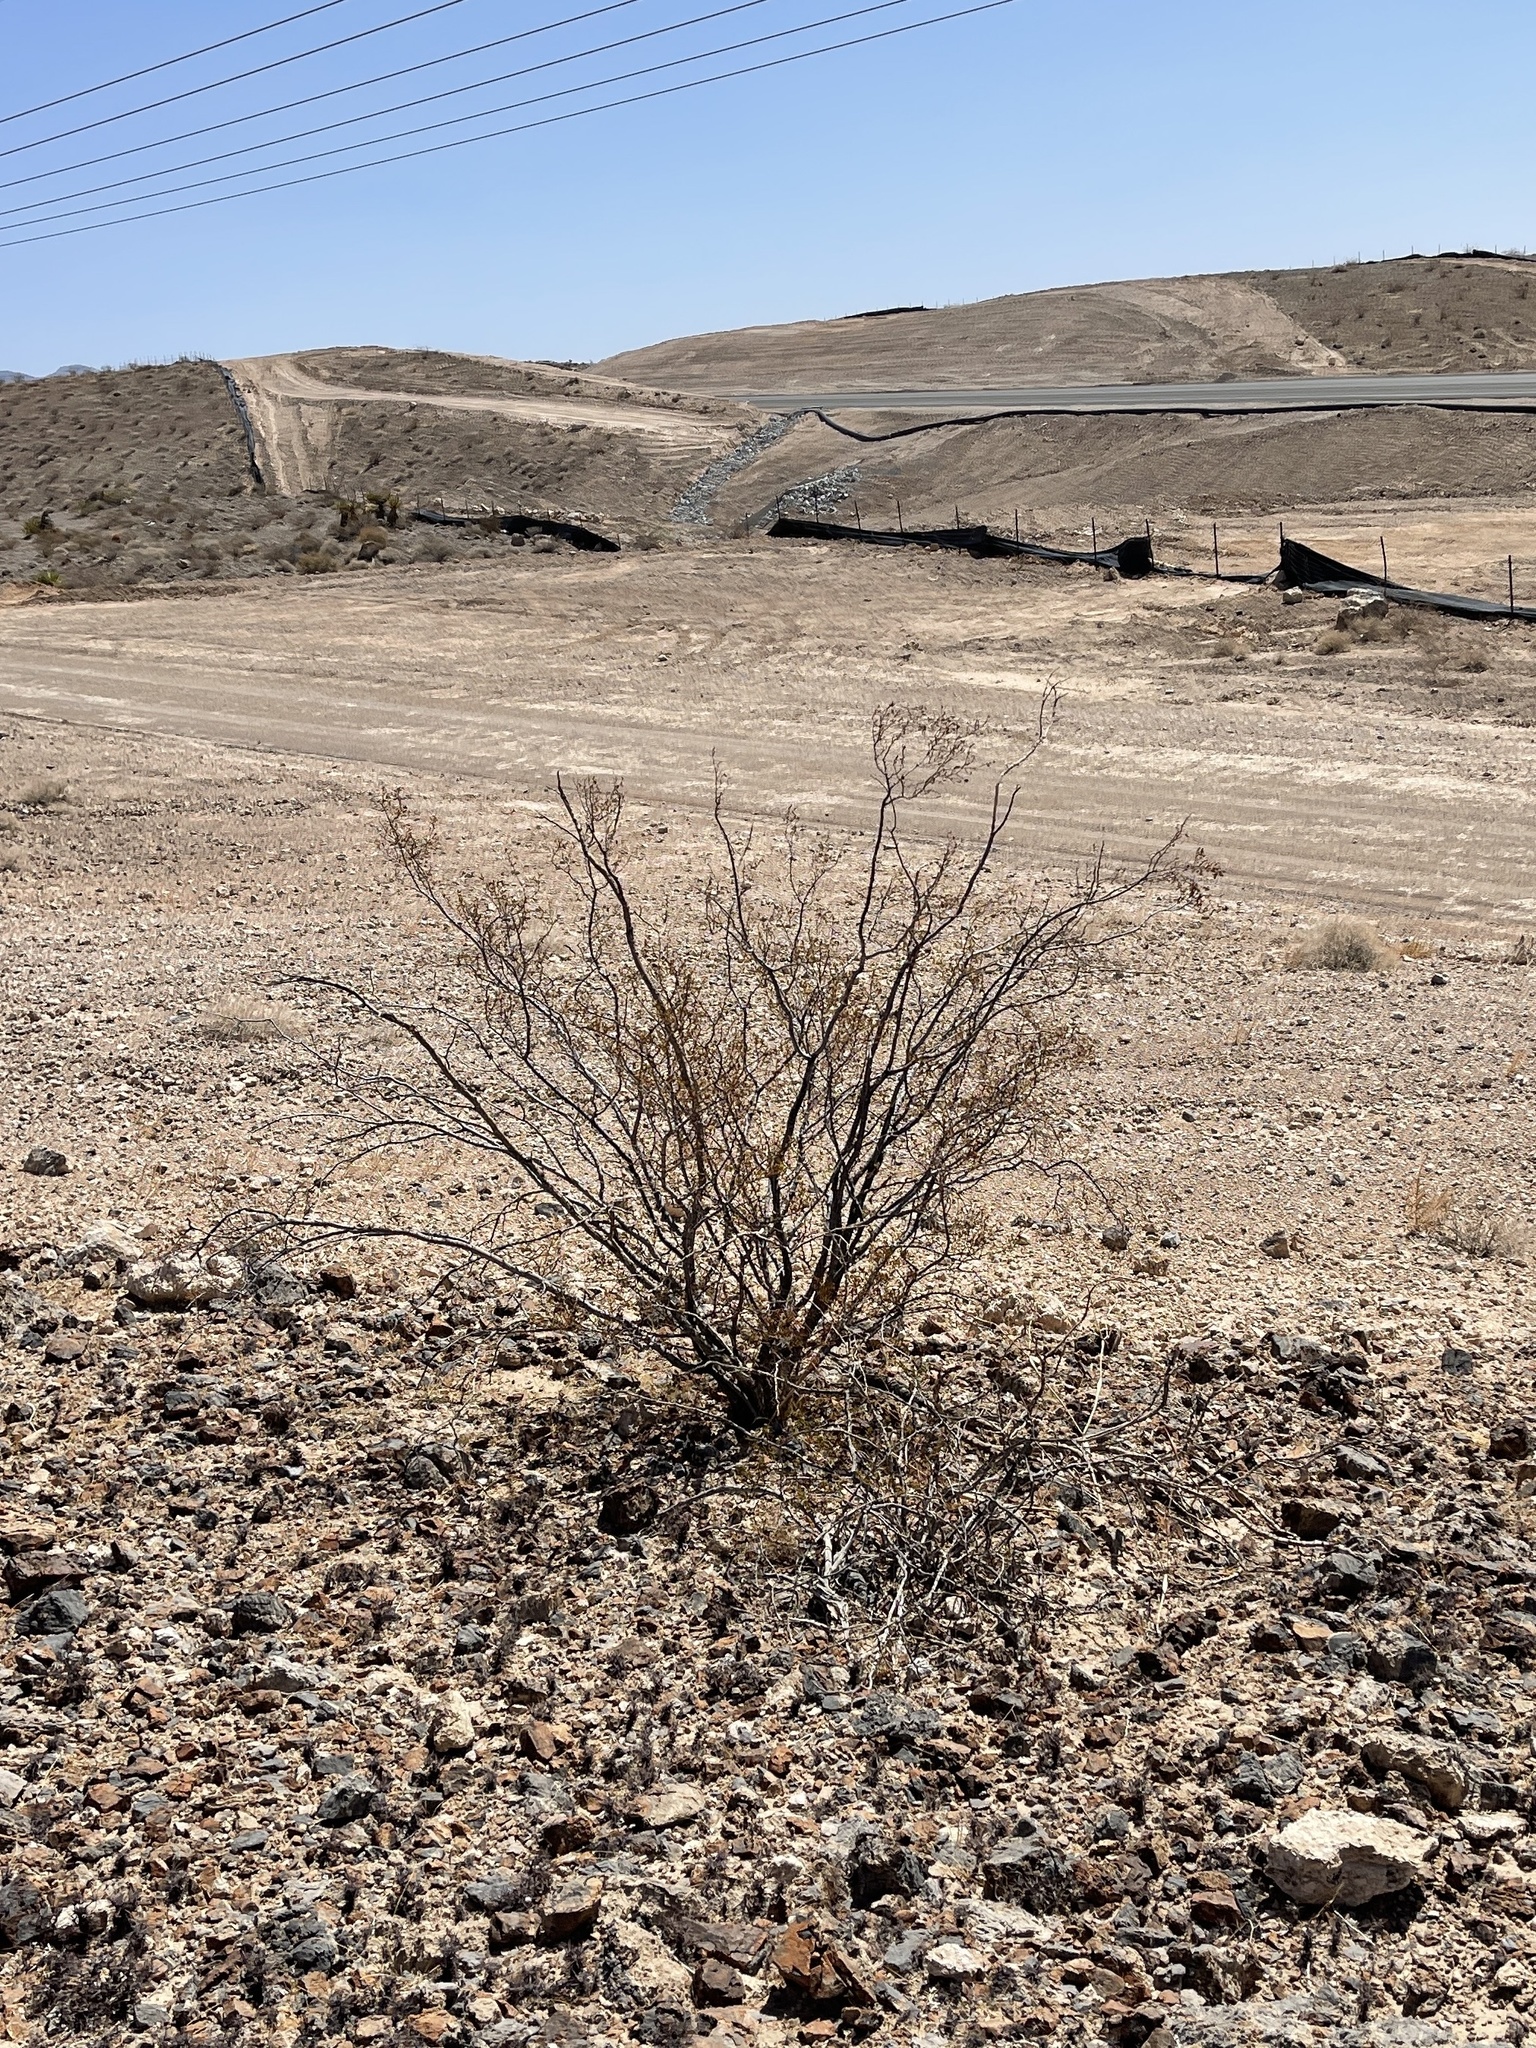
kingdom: Plantae
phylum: Tracheophyta
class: Magnoliopsida
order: Zygophyllales
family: Zygophyllaceae
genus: Larrea
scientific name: Larrea tridentata
